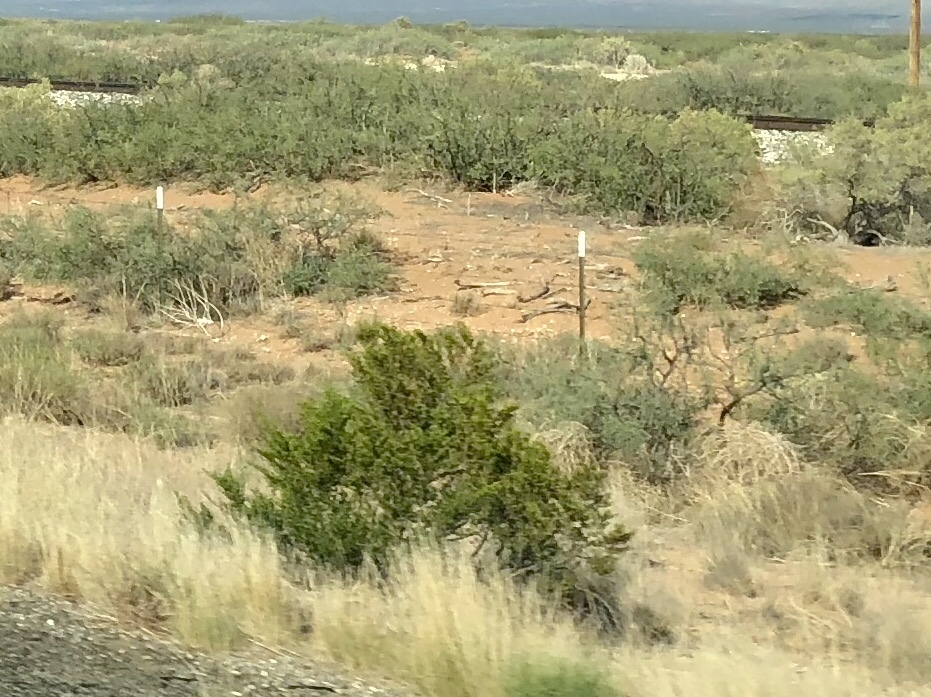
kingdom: Plantae
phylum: Tracheophyta
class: Magnoliopsida
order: Zygophyllales
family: Zygophyllaceae
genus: Larrea
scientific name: Larrea tridentata
